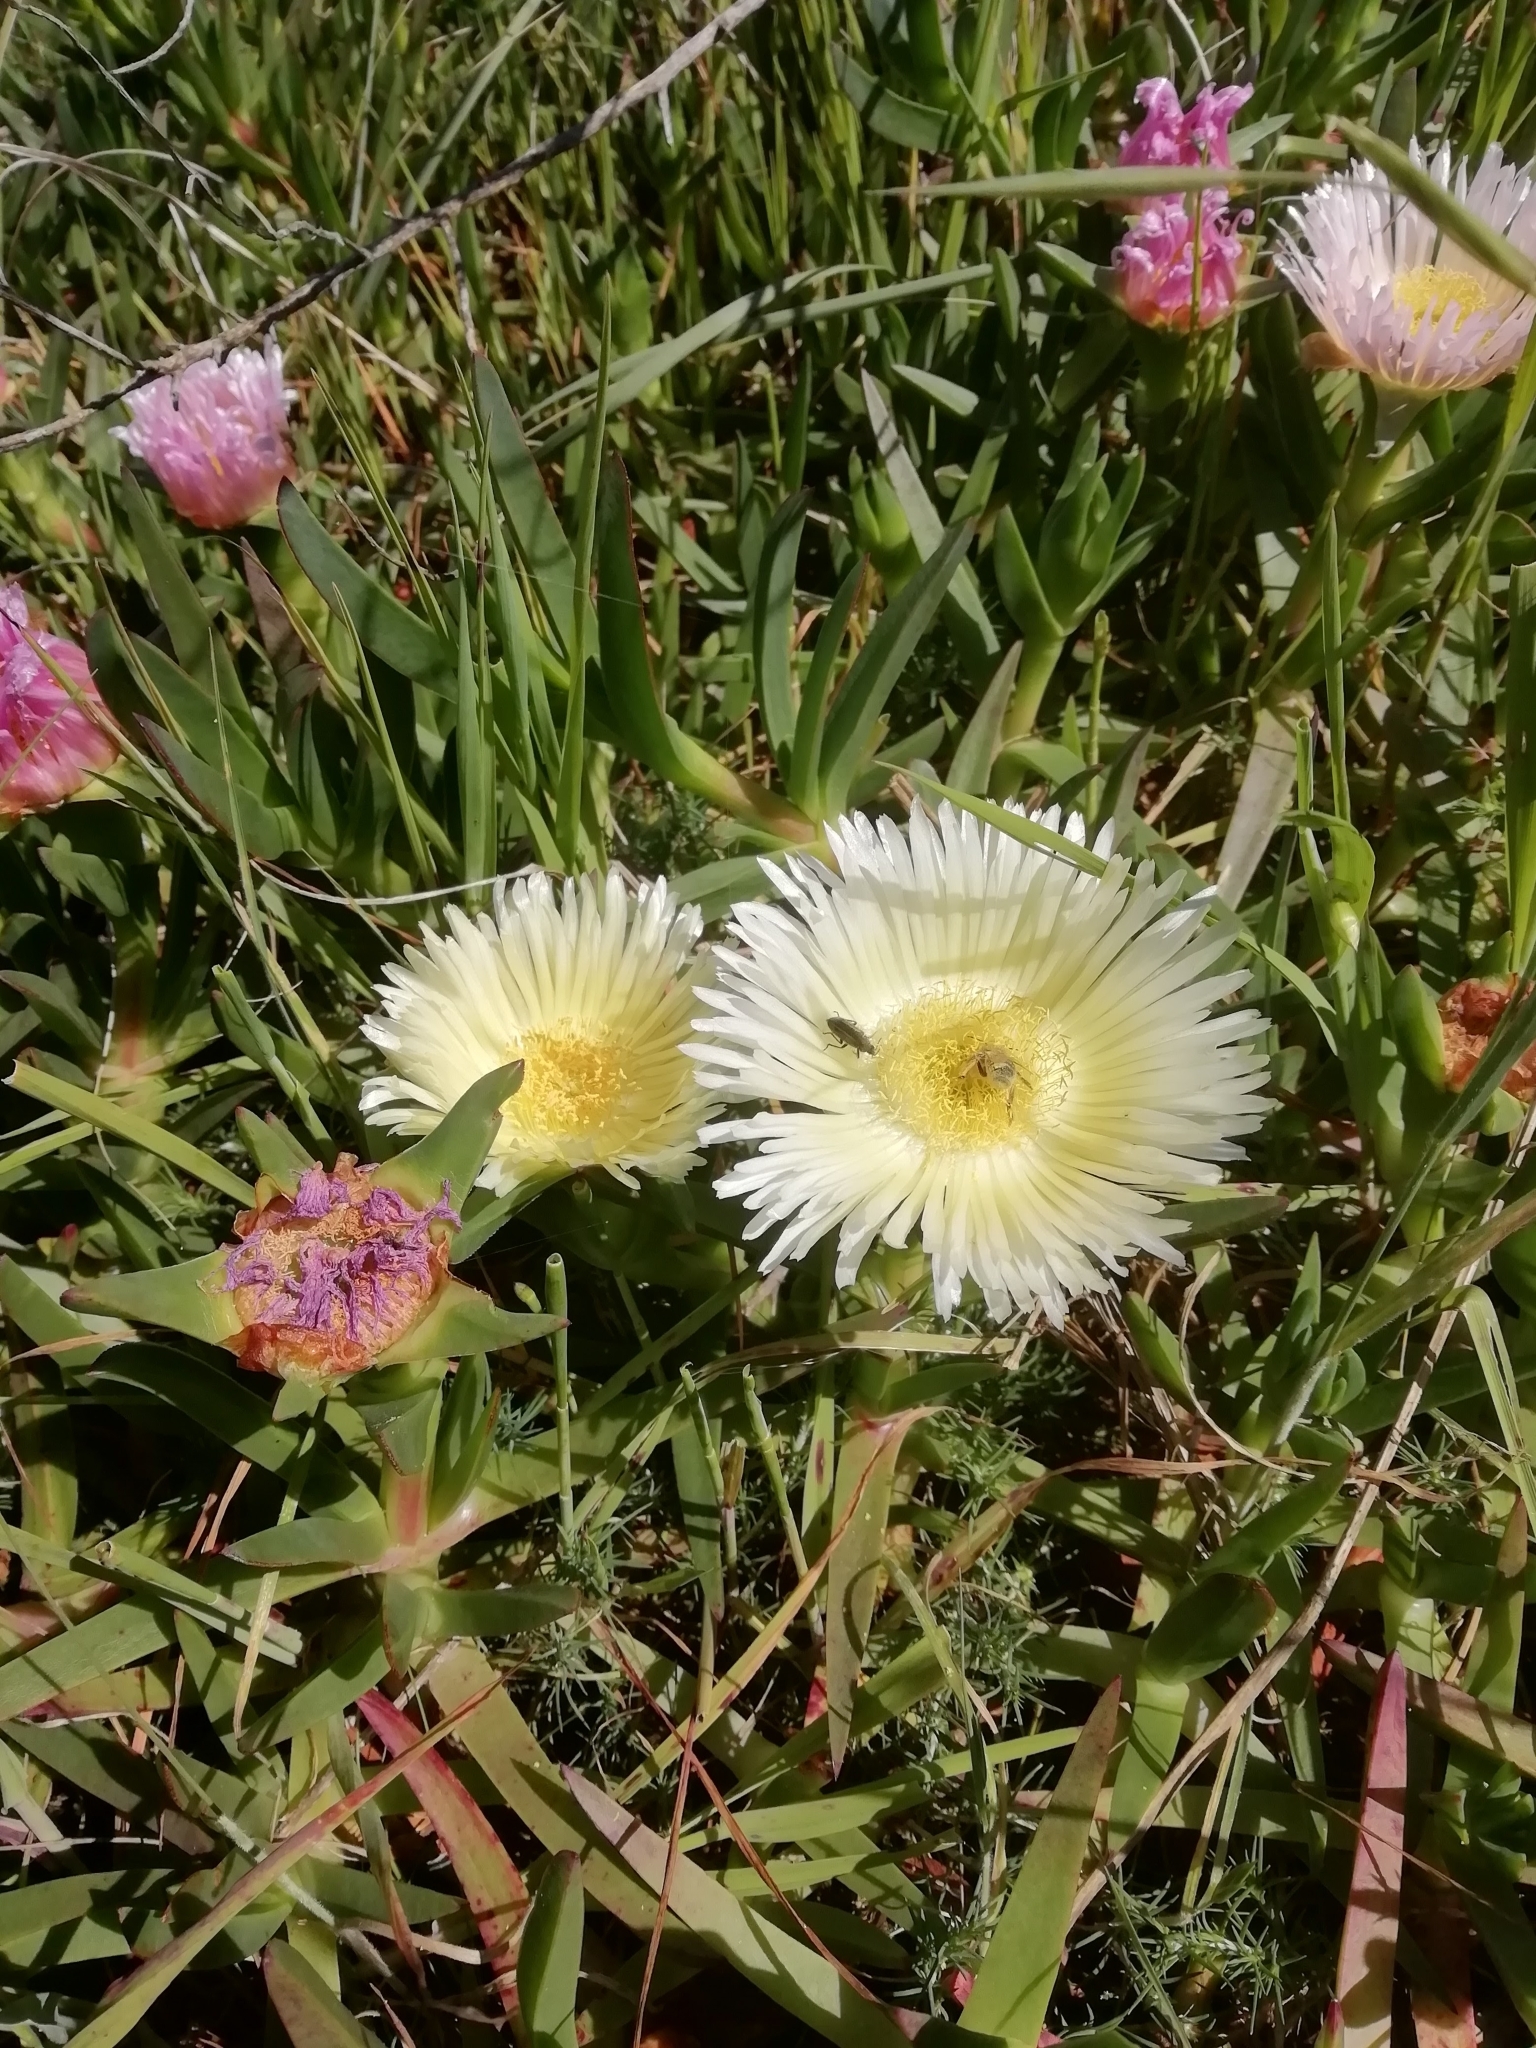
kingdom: Plantae
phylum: Tracheophyta
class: Magnoliopsida
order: Caryophyllales
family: Aizoaceae
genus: Carpobrotus
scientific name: Carpobrotus edulis
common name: Hottentot-fig
